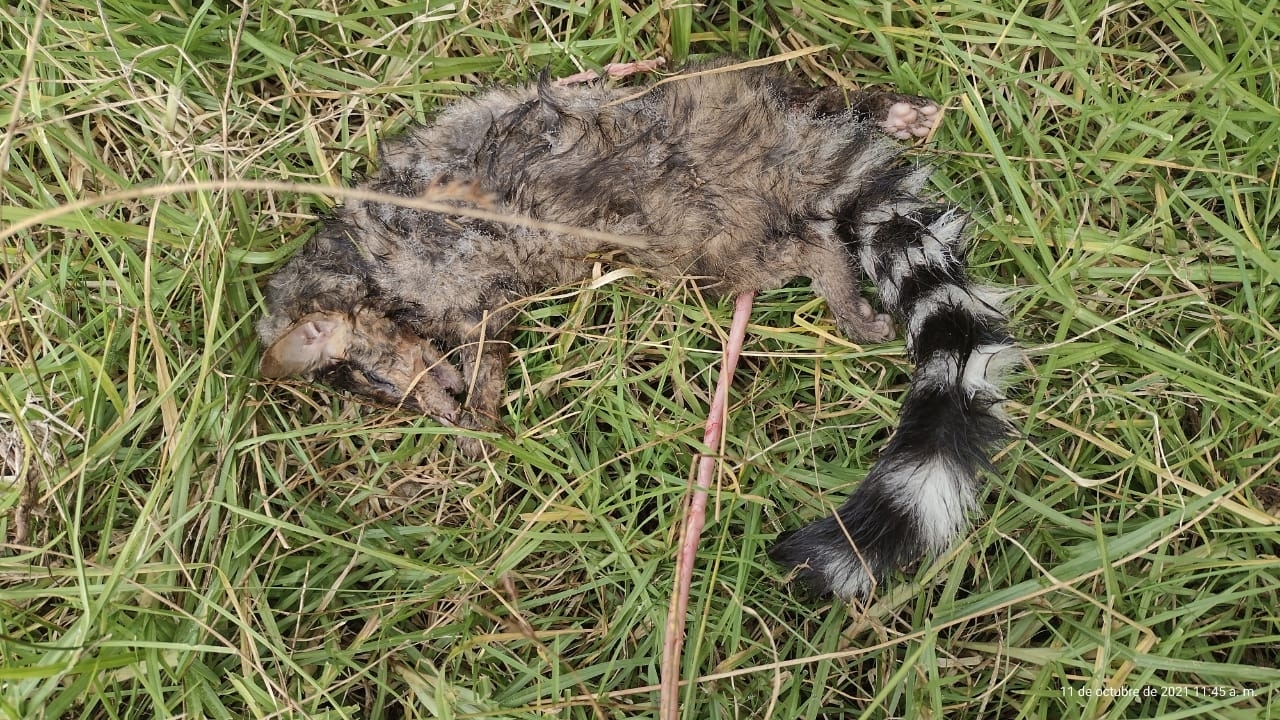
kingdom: Animalia
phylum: Chordata
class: Mammalia
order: Carnivora
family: Procyonidae
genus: Bassariscus
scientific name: Bassariscus astutus
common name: Ringtail
